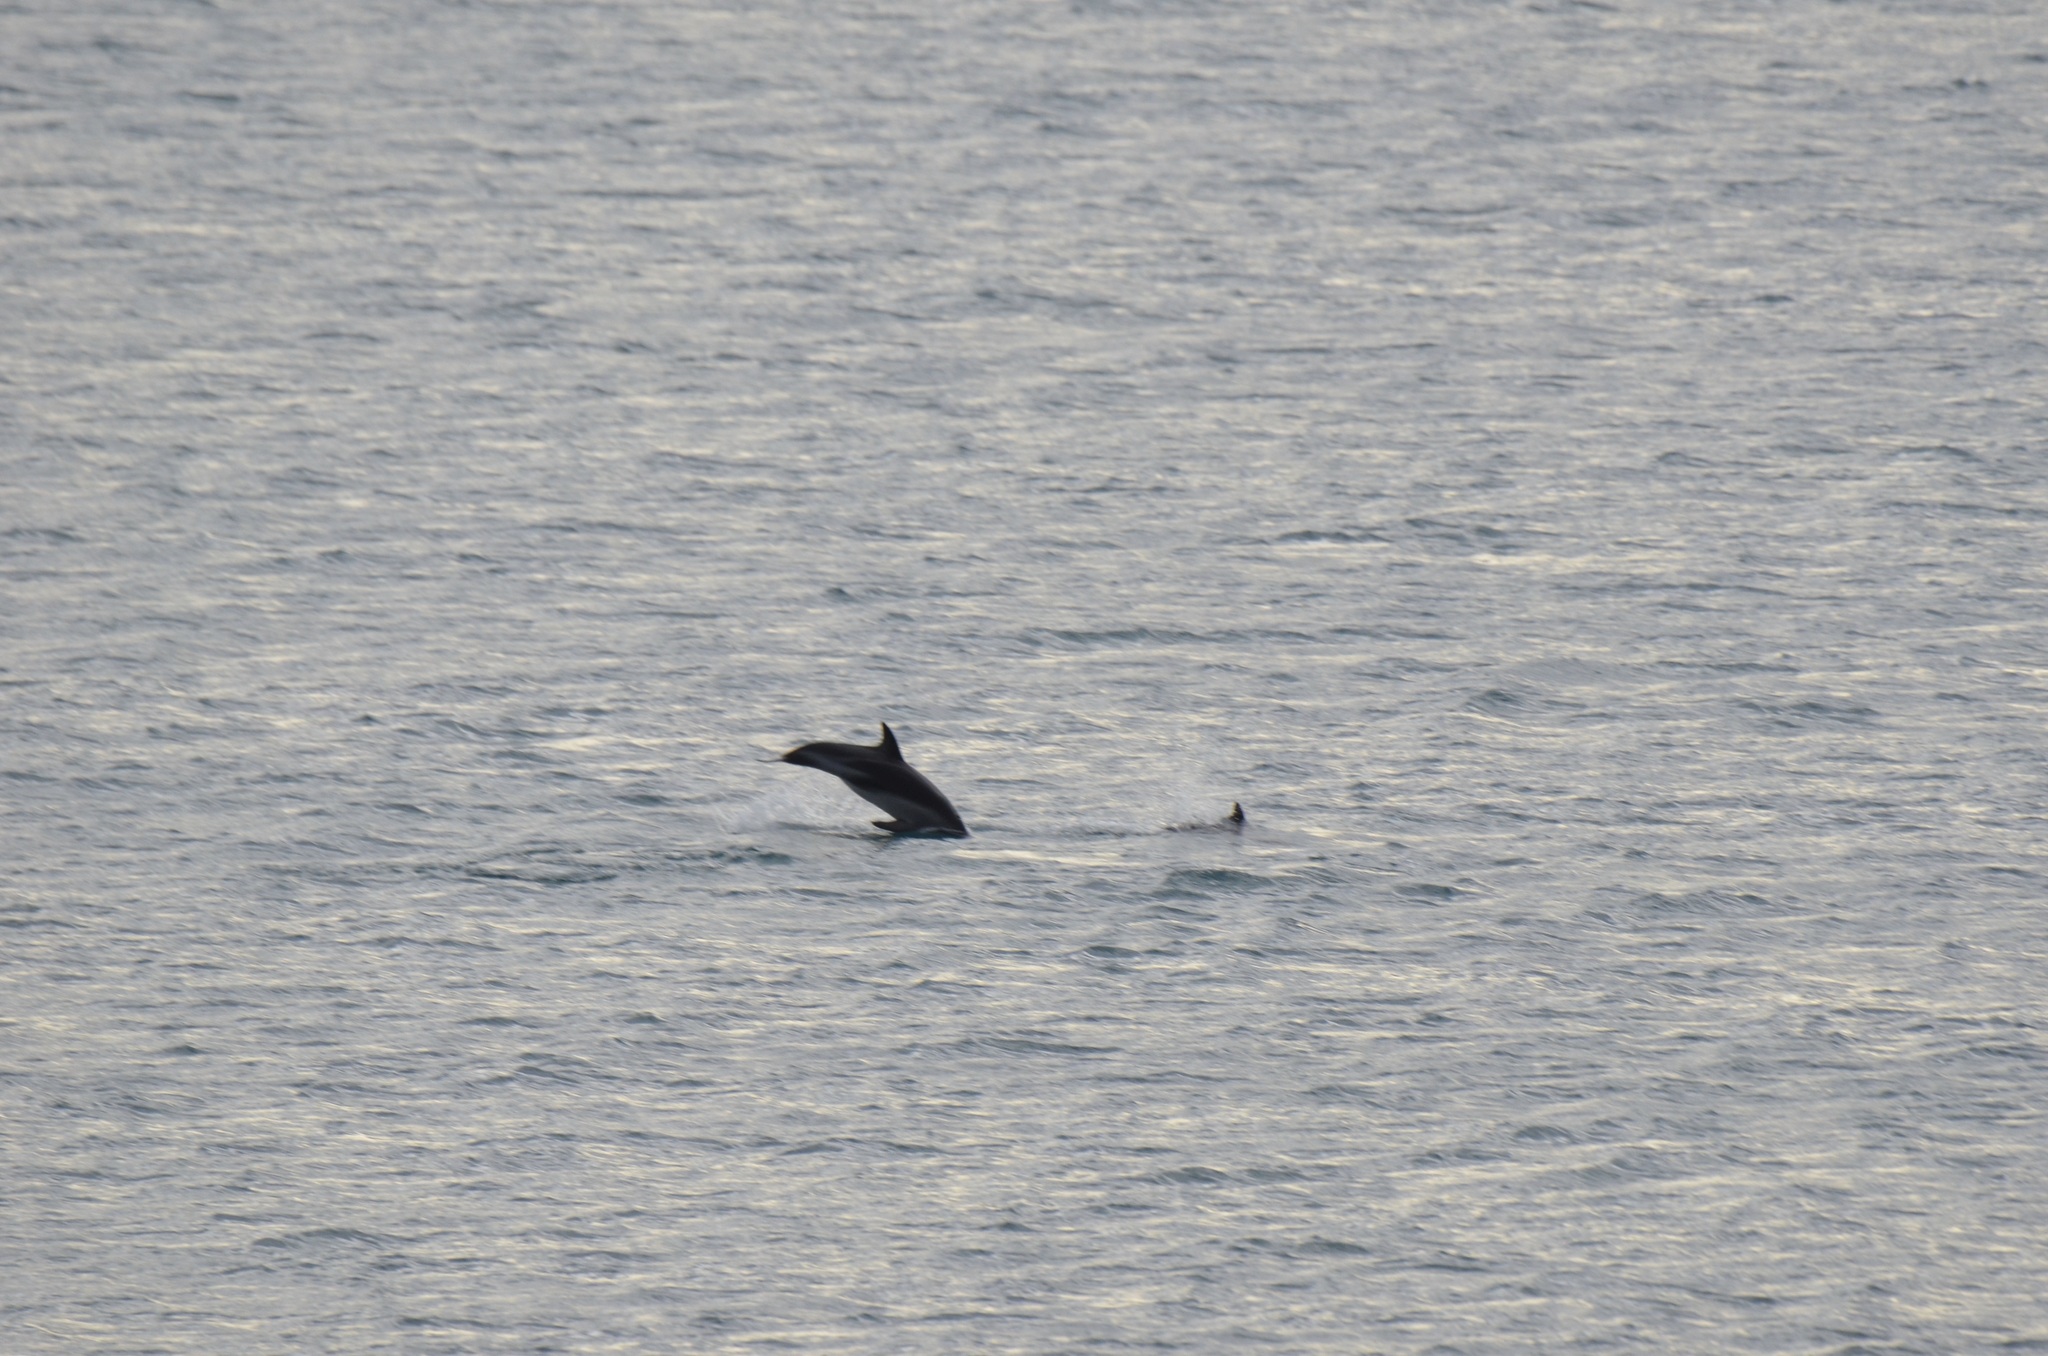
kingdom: Animalia
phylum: Chordata
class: Mammalia
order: Cetacea
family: Delphinidae
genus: Lagenorhynchus
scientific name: Lagenorhynchus obscurus
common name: Dusky dolphin
